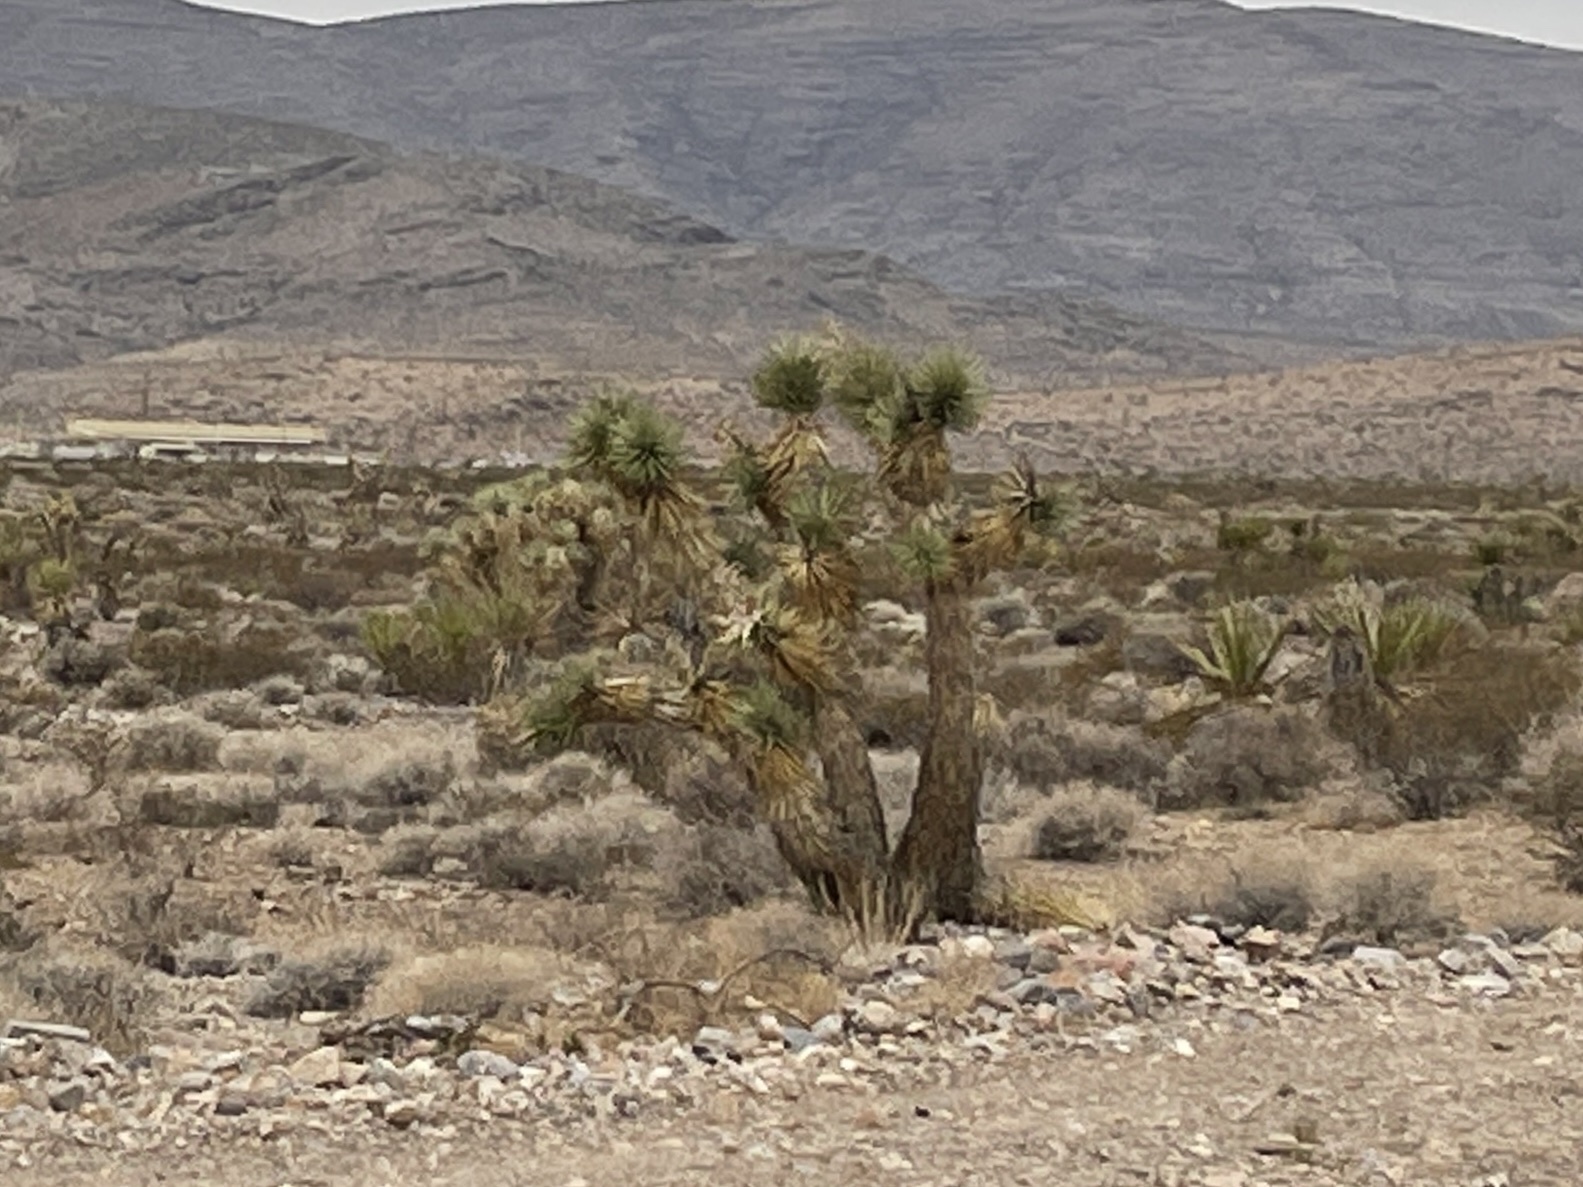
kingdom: Plantae
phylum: Tracheophyta
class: Liliopsida
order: Asparagales
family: Asparagaceae
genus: Yucca
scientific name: Yucca brevifolia
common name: Joshua tree
